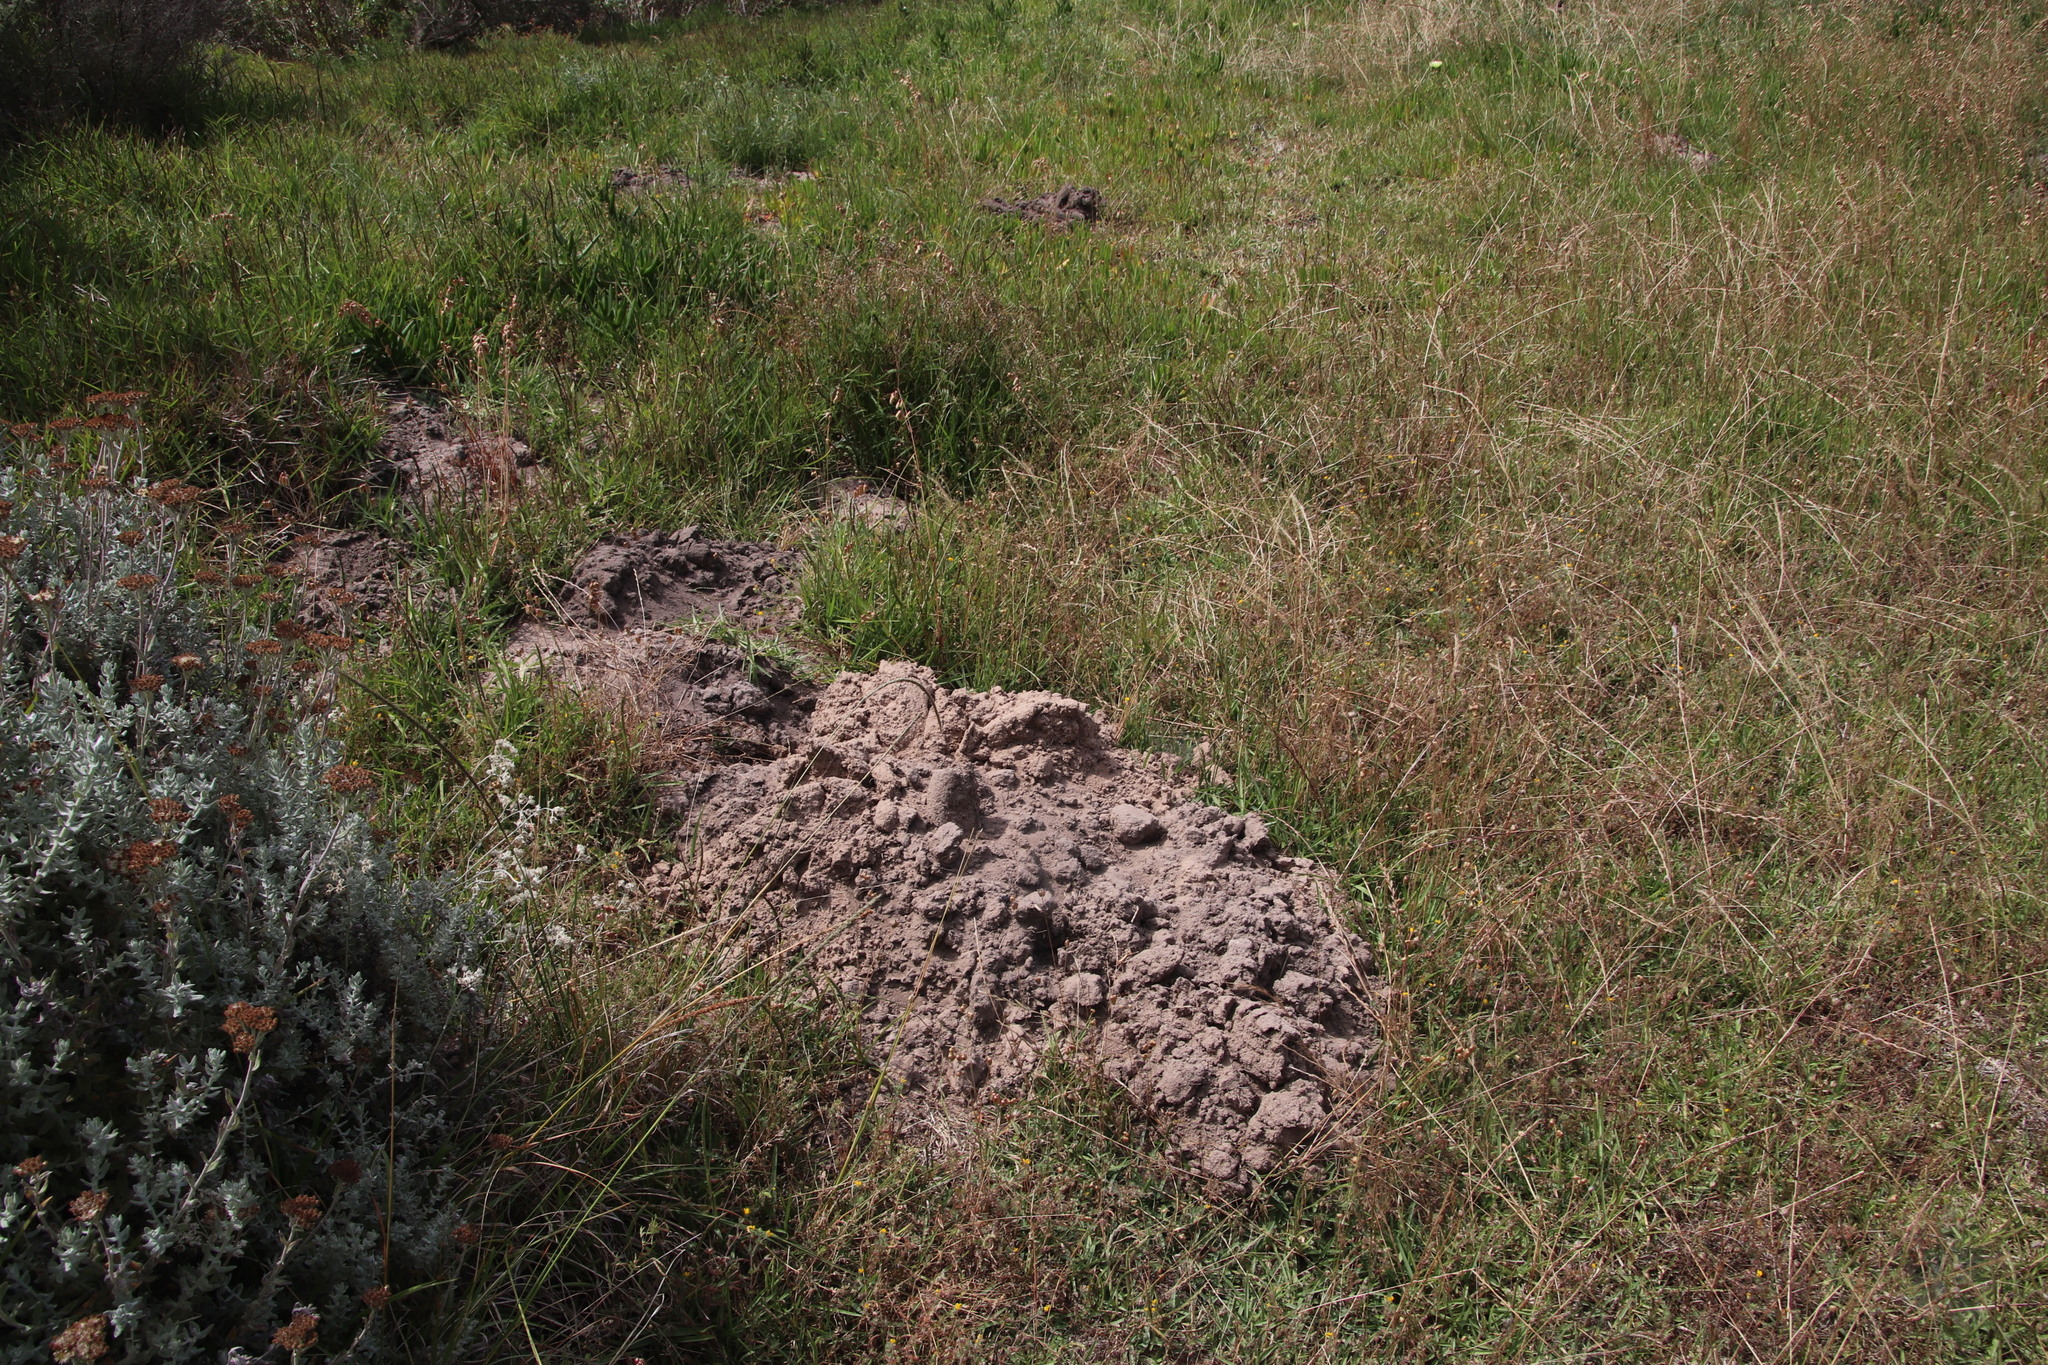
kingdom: Animalia
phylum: Chordata
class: Mammalia
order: Rodentia
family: Bathyergidae
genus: Bathyergus
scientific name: Bathyergus suillus
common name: Cape dune mole rat
